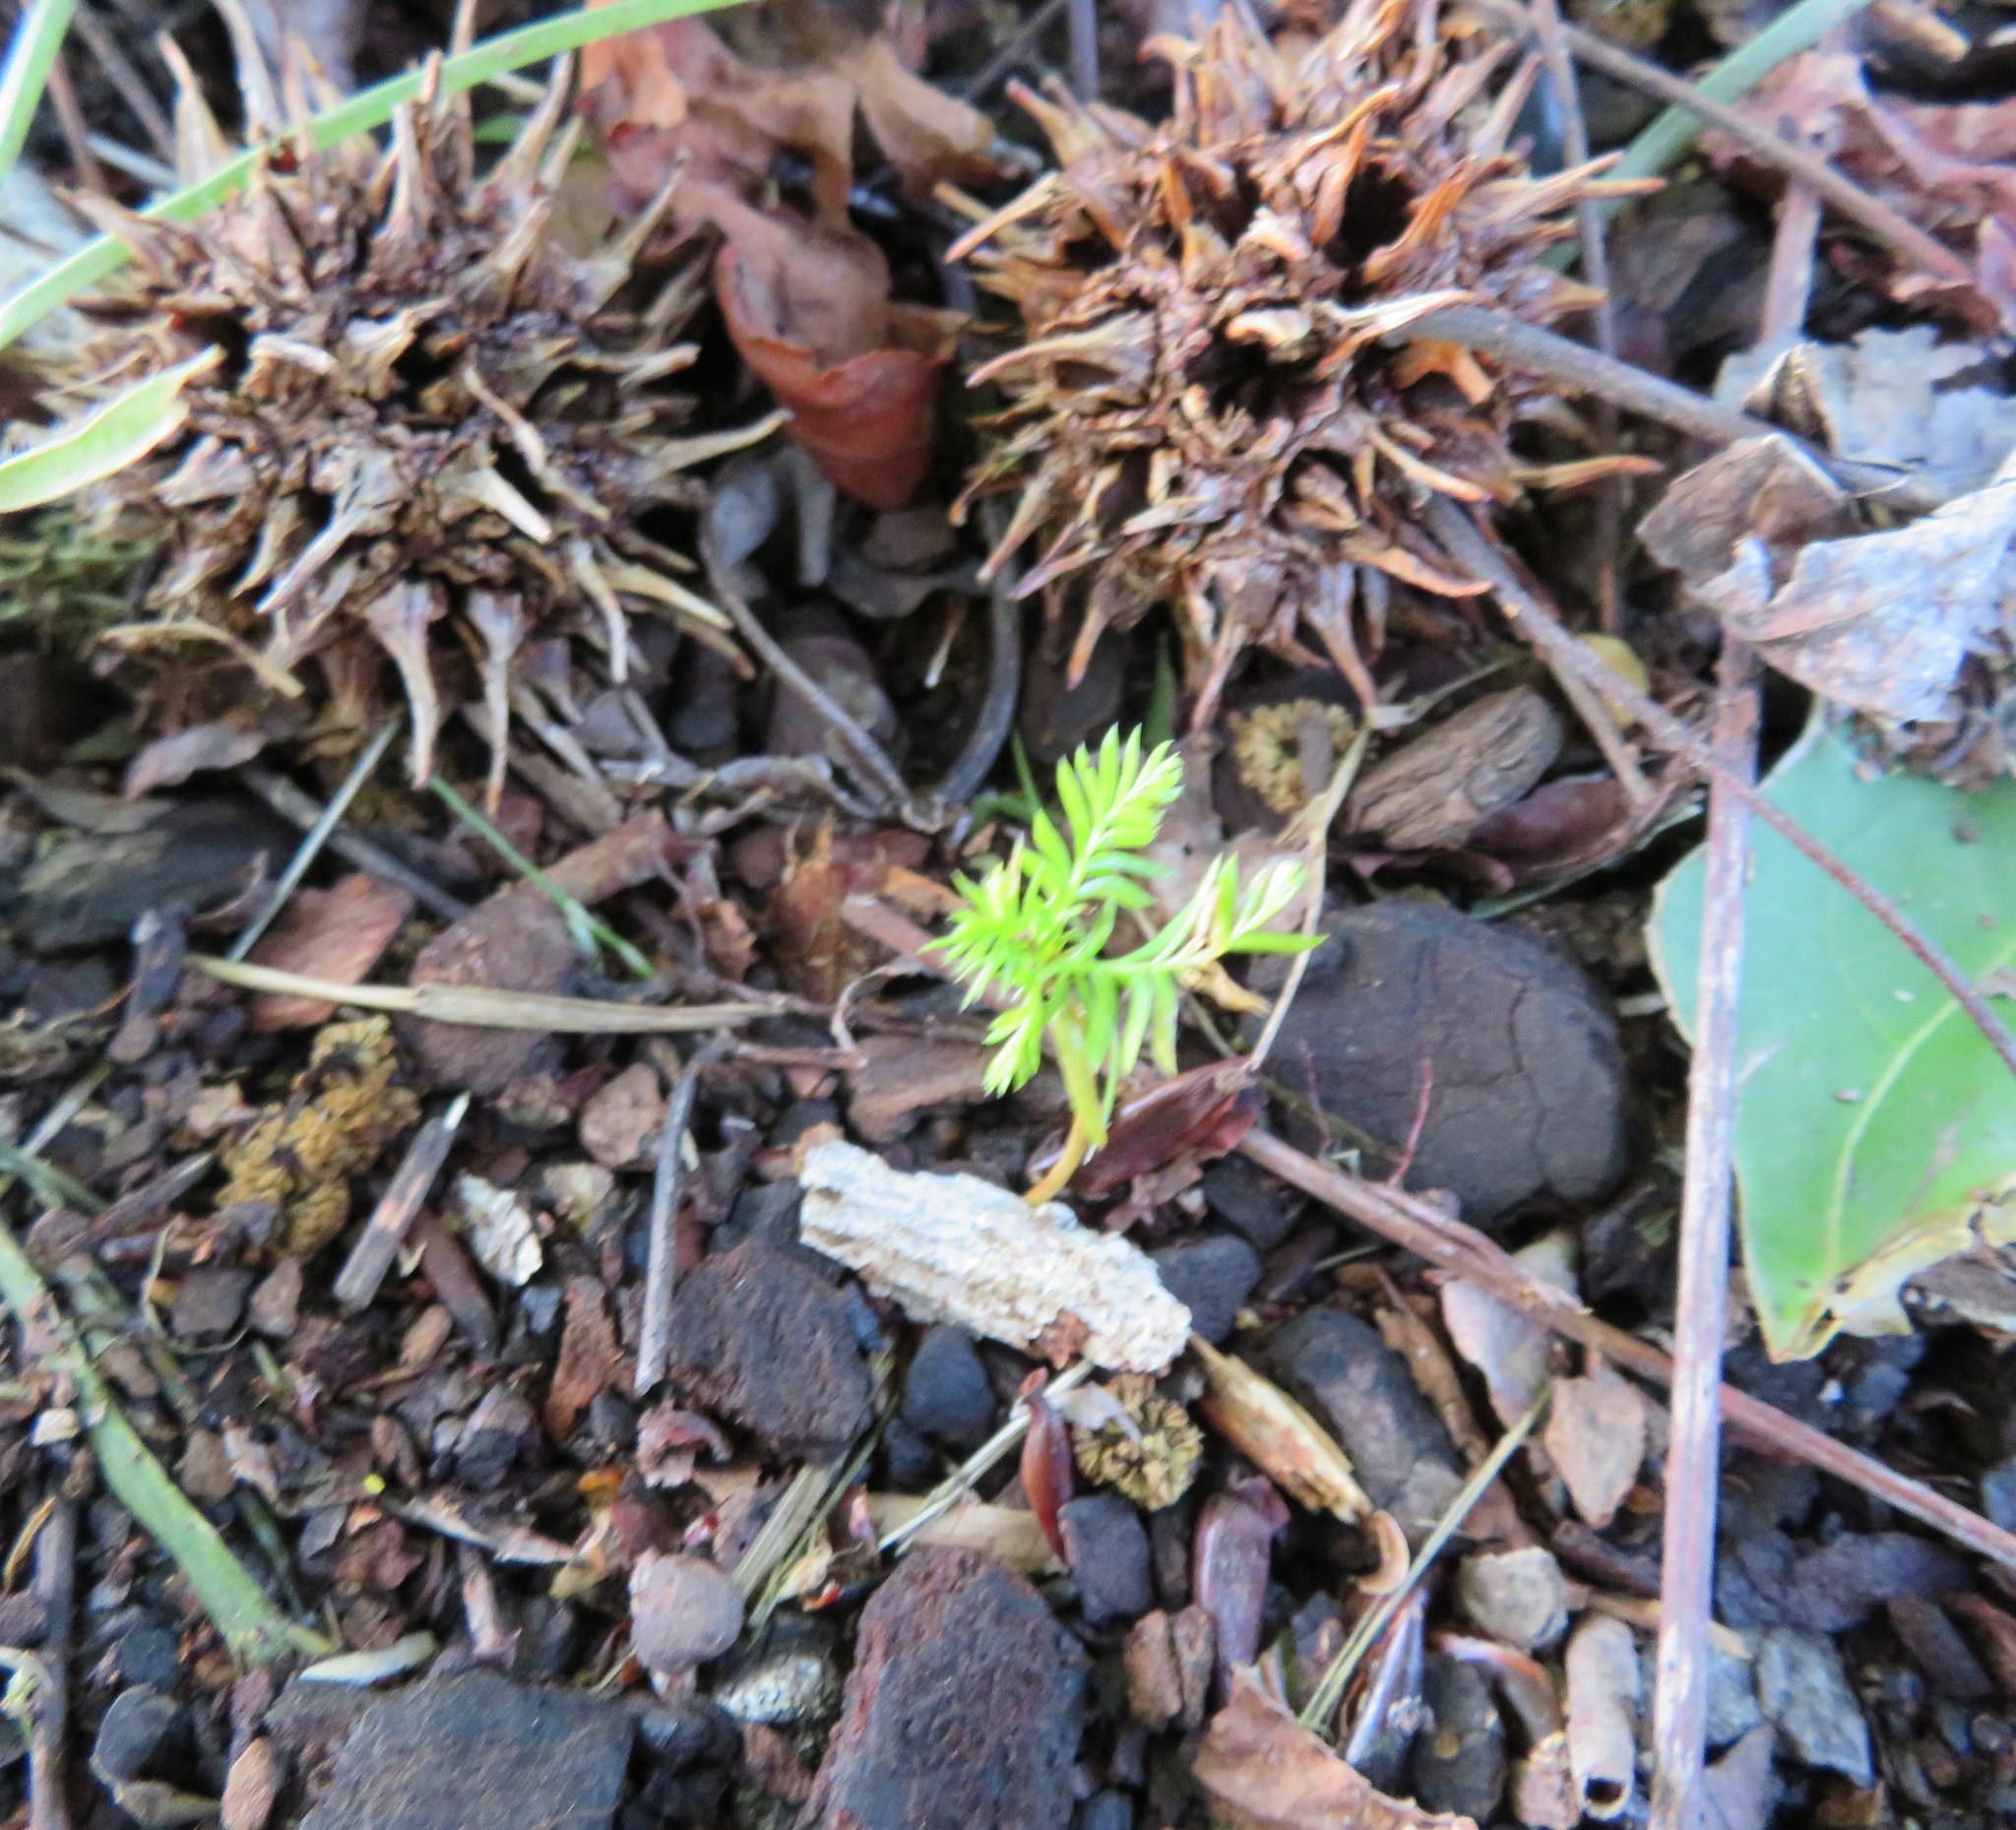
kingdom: Plantae
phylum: Tracheophyta
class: Pinopsida
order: Pinales
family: Podocarpaceae
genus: Dacrycarpus
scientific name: Dacrycarpus dacrydioides
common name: White pine
